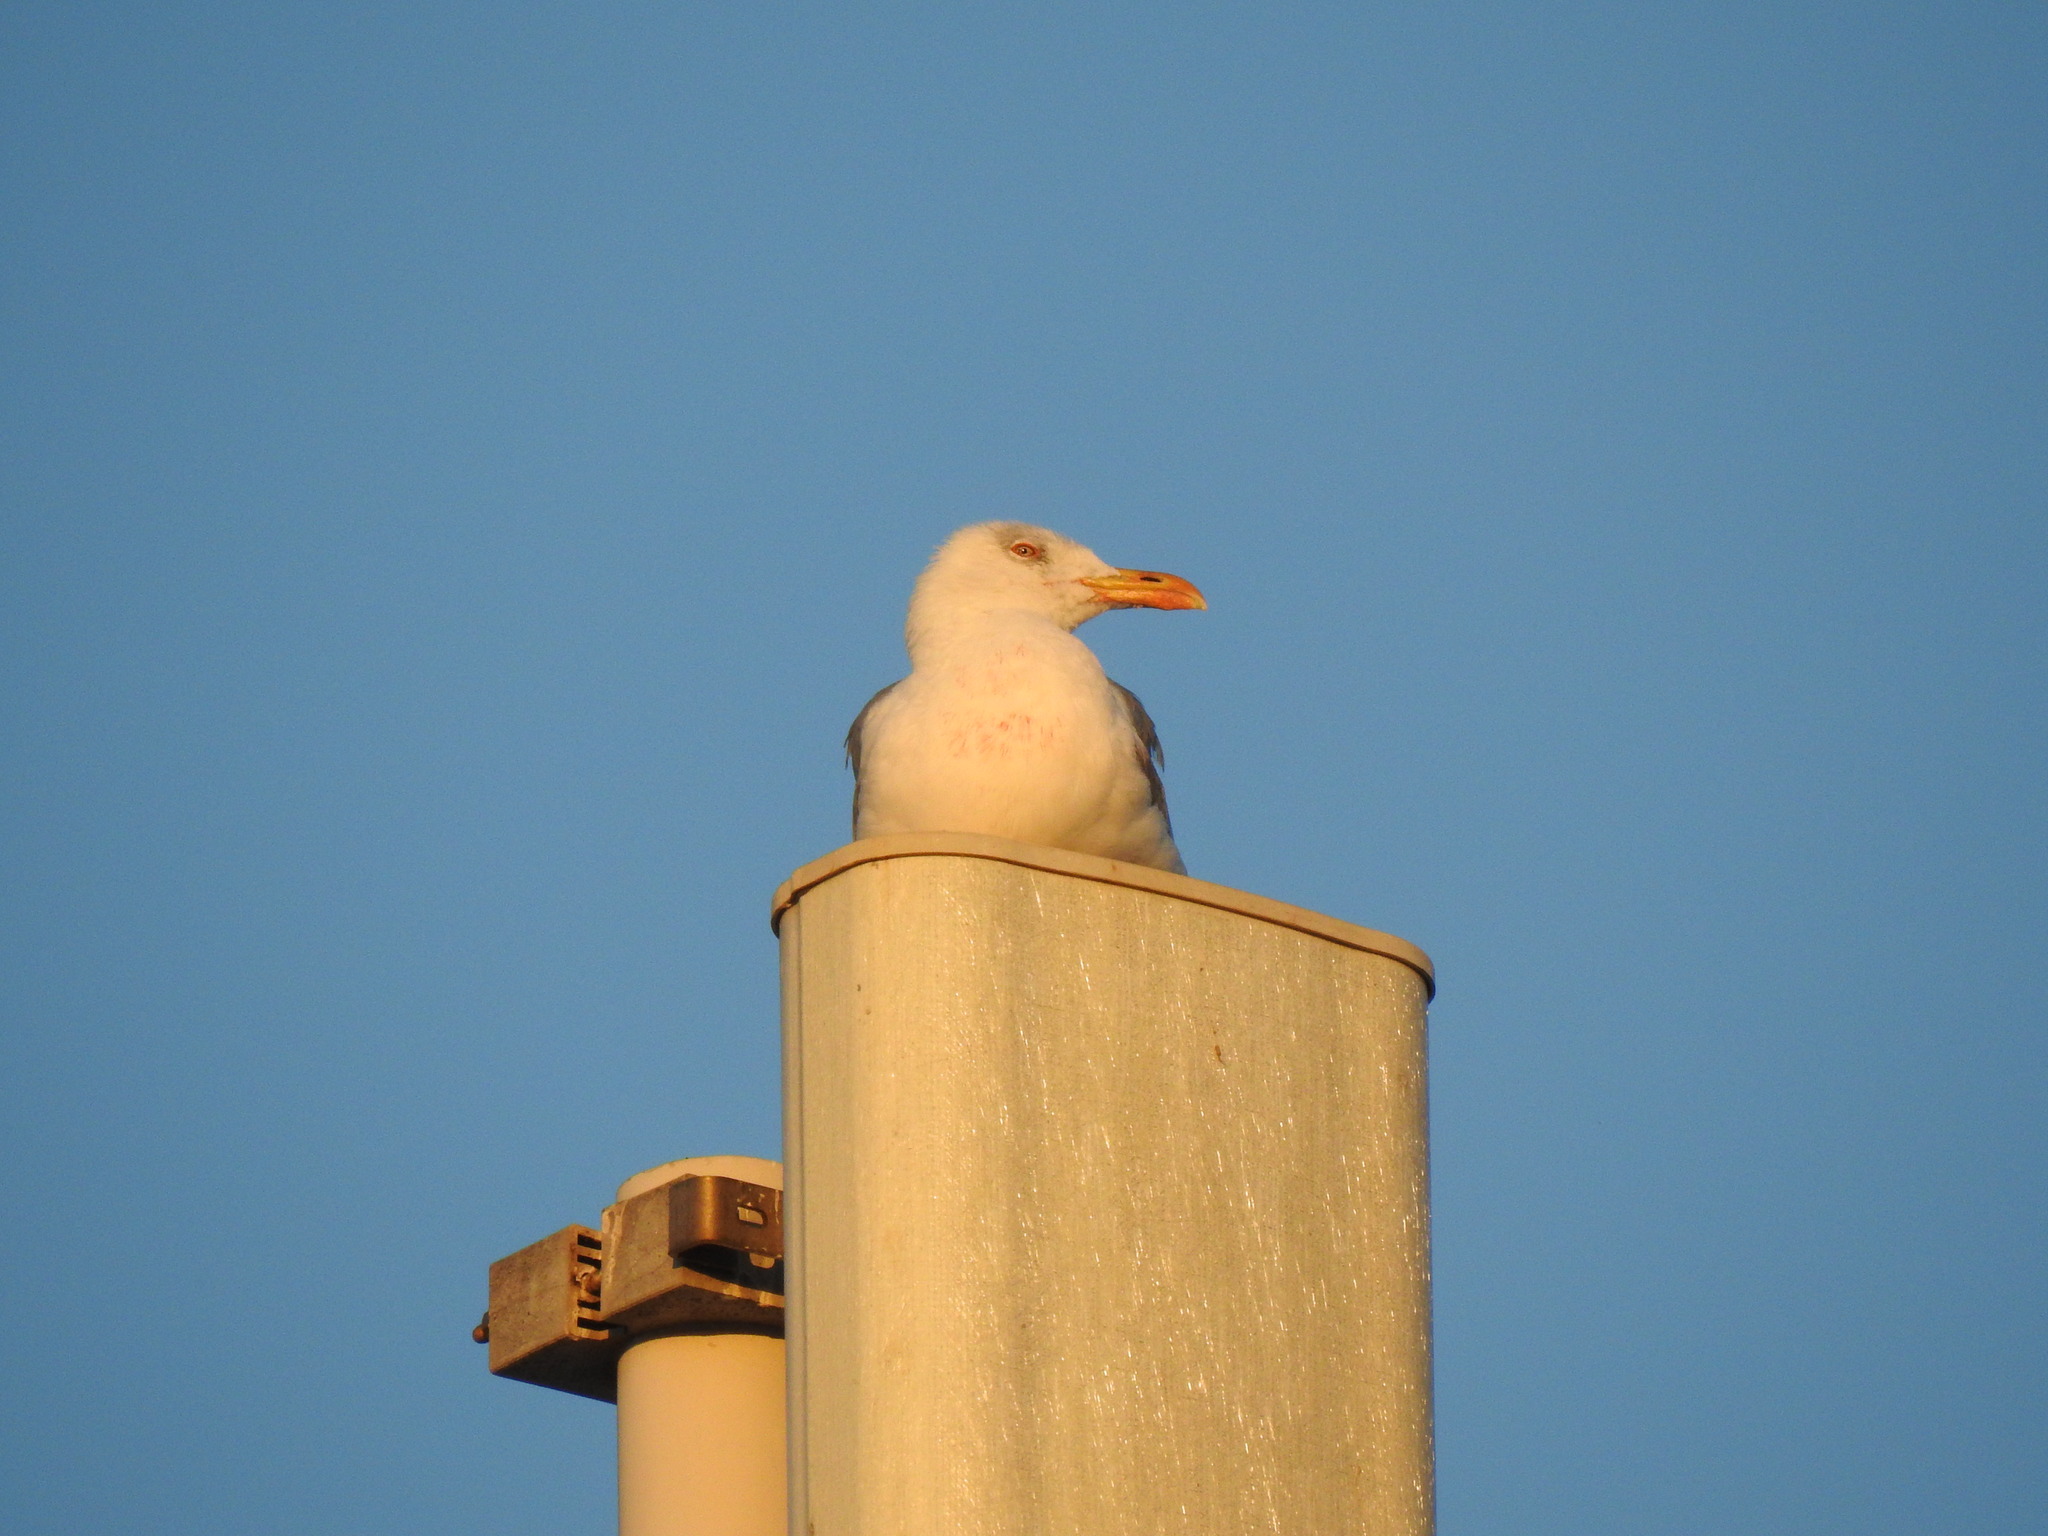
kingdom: Animalia
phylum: Chordata
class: Aves
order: Charadriiformes
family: Laridae
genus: Larus
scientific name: Larus michahellis
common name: Yellow-legged gull
